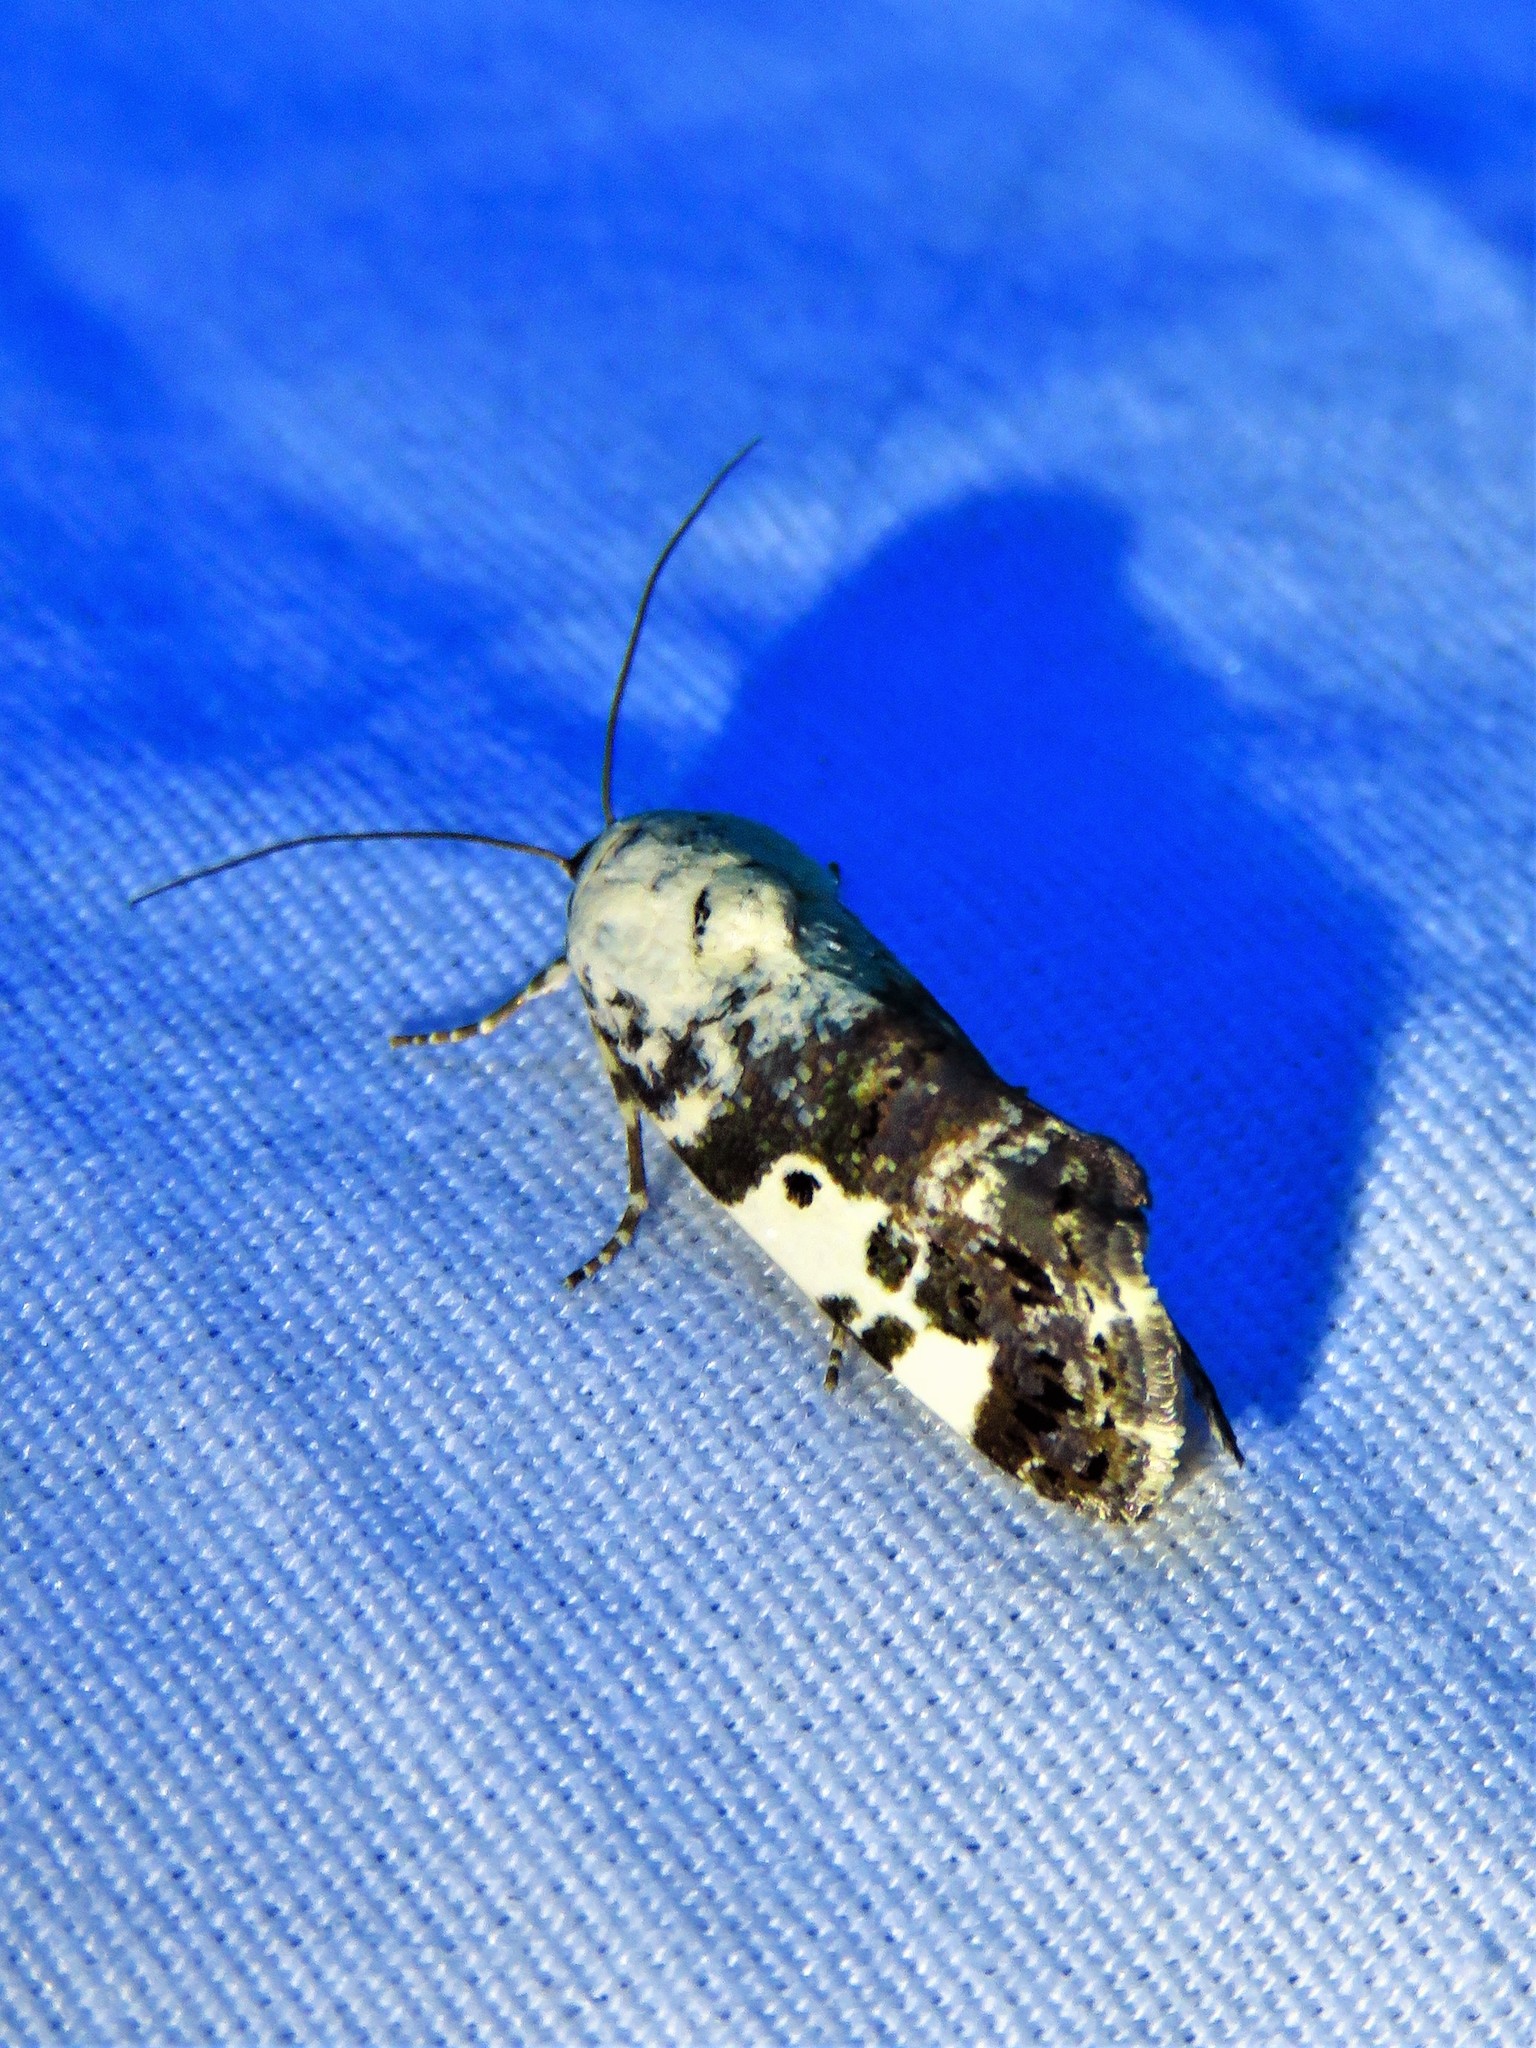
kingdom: Animalia
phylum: Arthropoda
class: Insecta
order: Lepidoptera
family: Noctuidae
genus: Acontia
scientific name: Acontia aprica
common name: Nun
